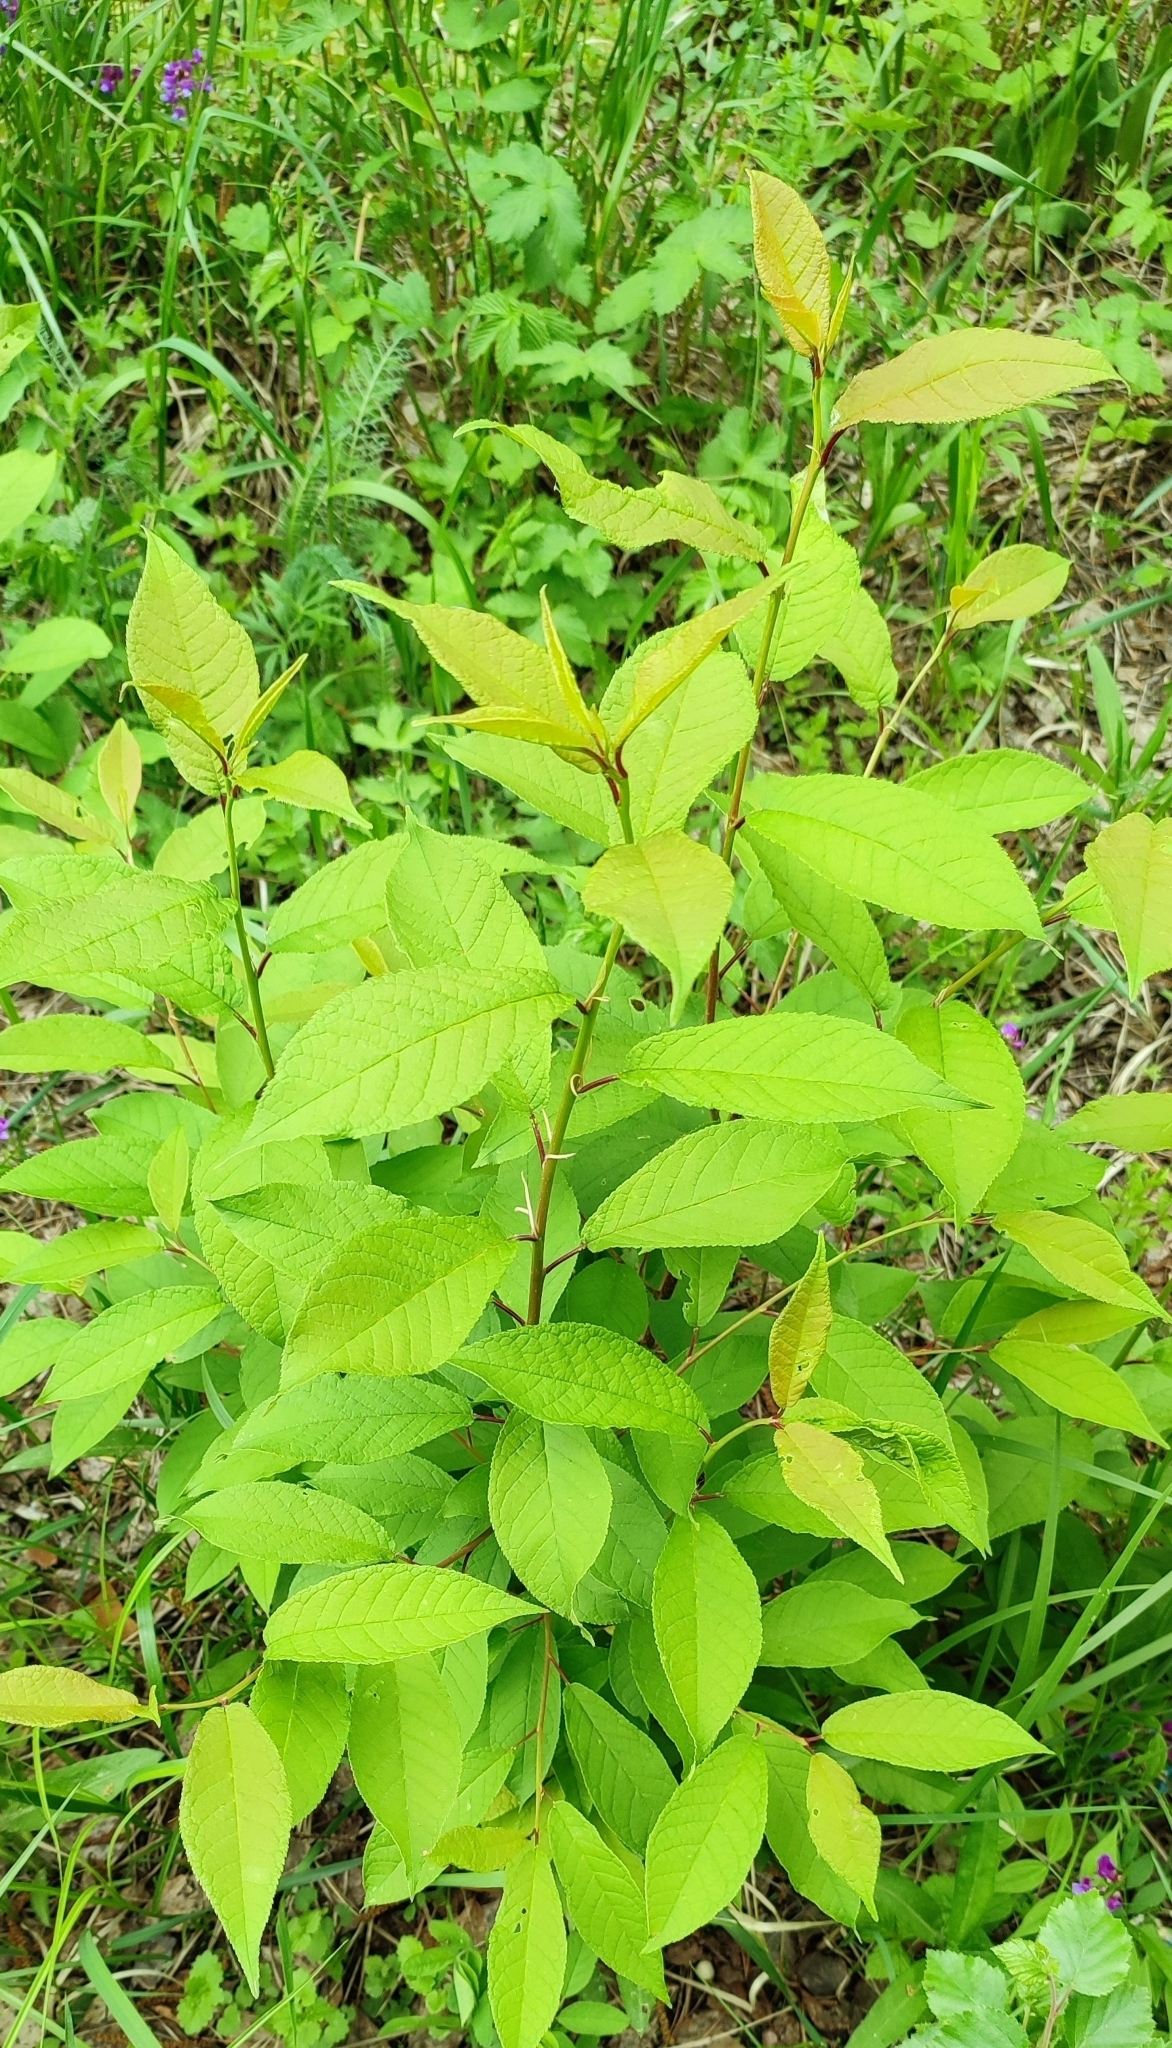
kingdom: Plantae
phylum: Tracheophyta
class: Magnoliopsida
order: Rosales
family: Rosaceae
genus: Prunus
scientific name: Prunus padus
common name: Bird cherry
